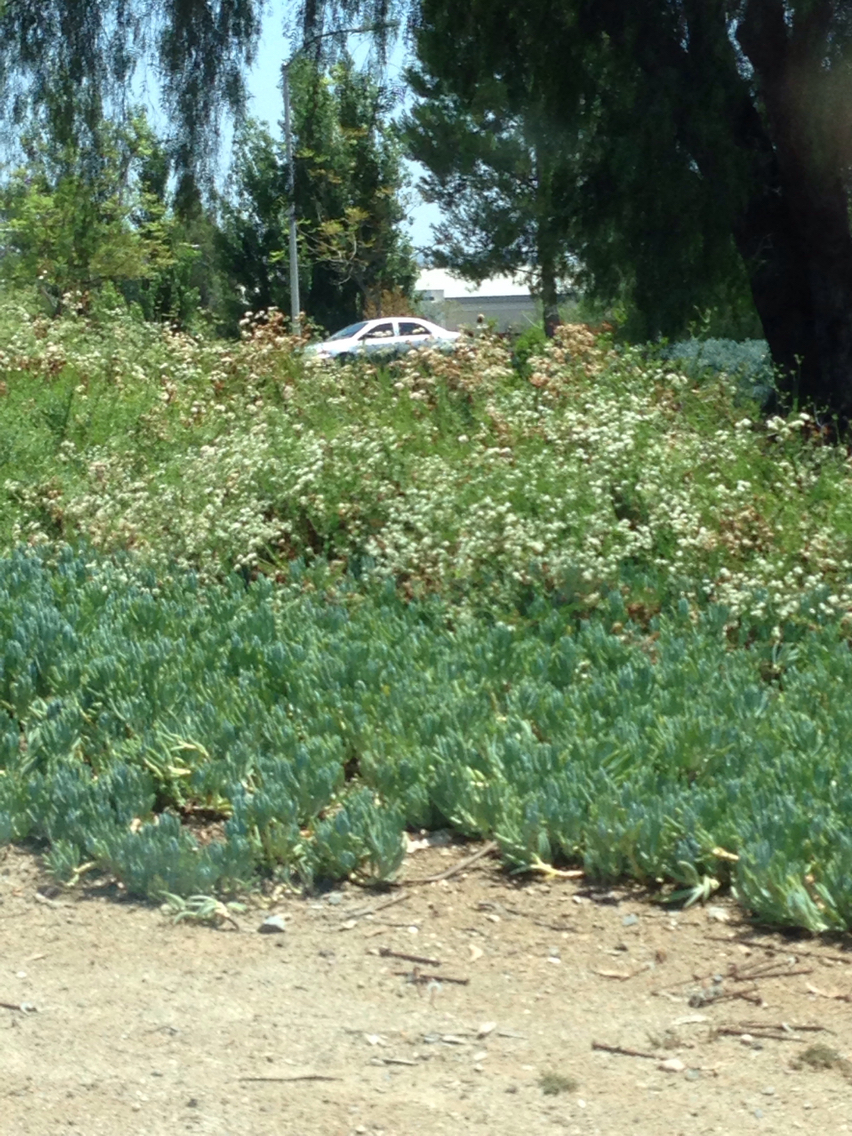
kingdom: Plantae
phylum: Tracheophyta
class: Magnoliopsida
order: Caryophyllales
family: Polygonaceae
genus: Eriogonum
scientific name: Eriogonum fasciculatum
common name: California wild buckwheat
